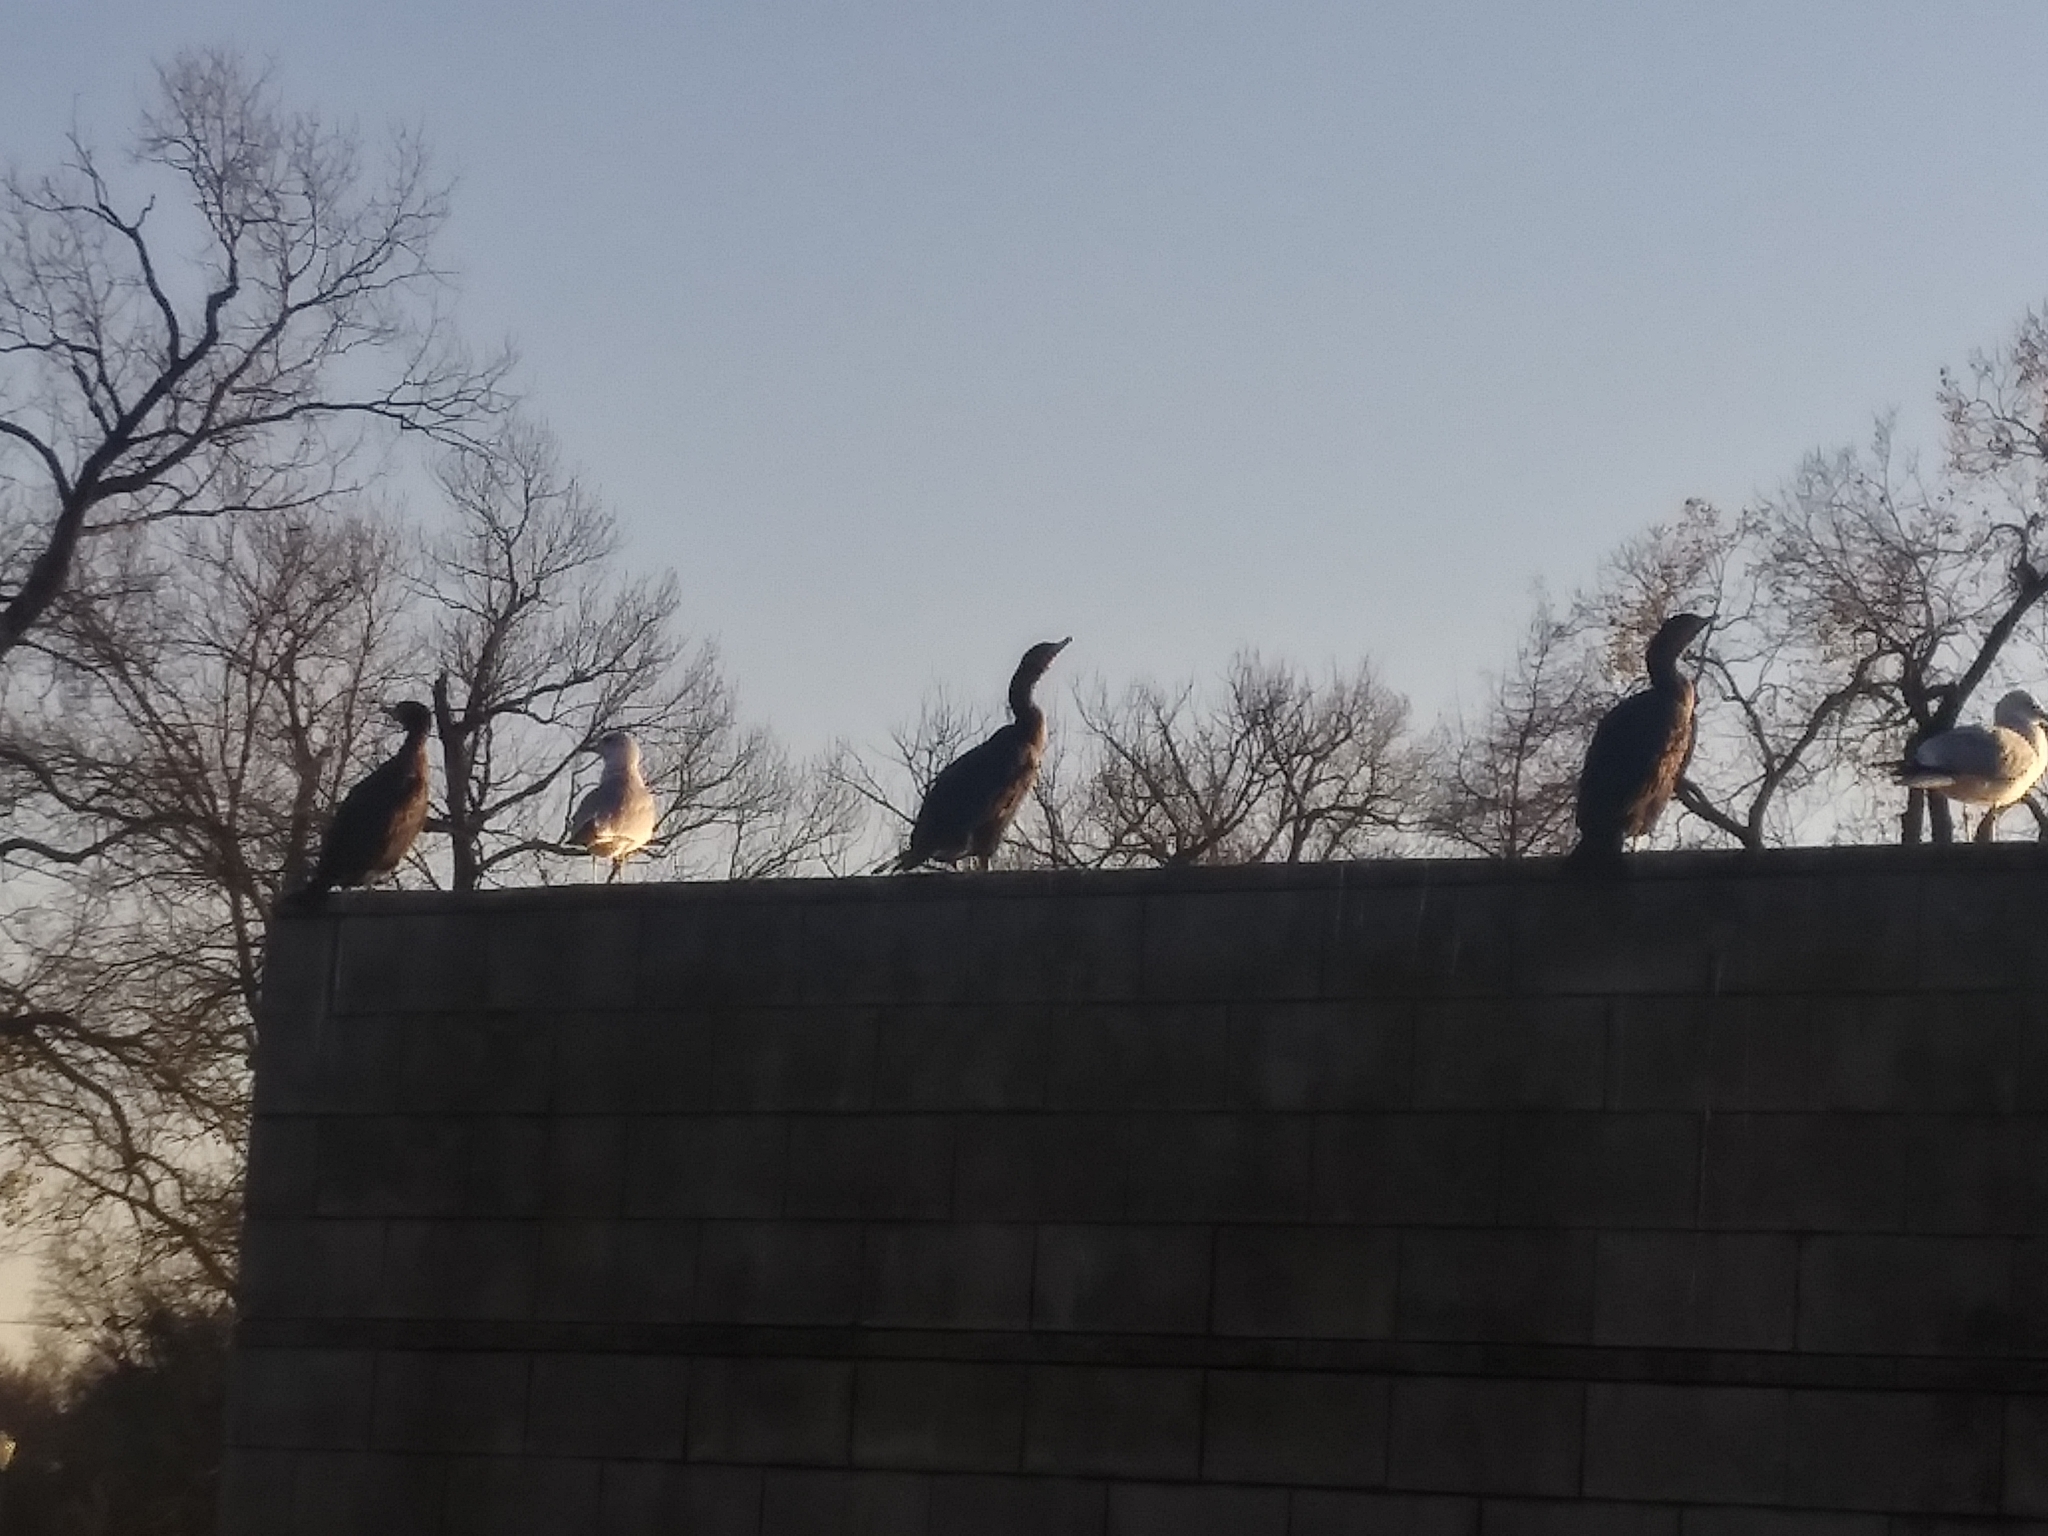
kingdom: Animalia
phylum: Chordata
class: Aves
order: Suliformes
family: Phalacrocoracidae
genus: Phalacrocorax
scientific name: Phalacrocorax auritus
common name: Double-crested cormorant
